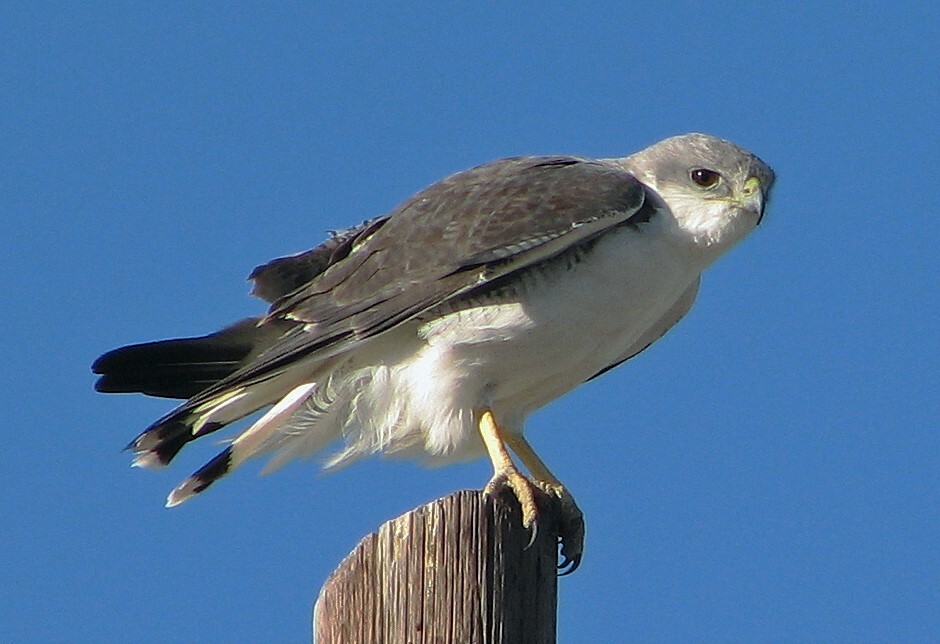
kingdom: Animalia
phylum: Chordata
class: Aves
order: Accipitriformes
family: Accipitridae
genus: Buteo
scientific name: Buteo polyosoma
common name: Variable hawk
